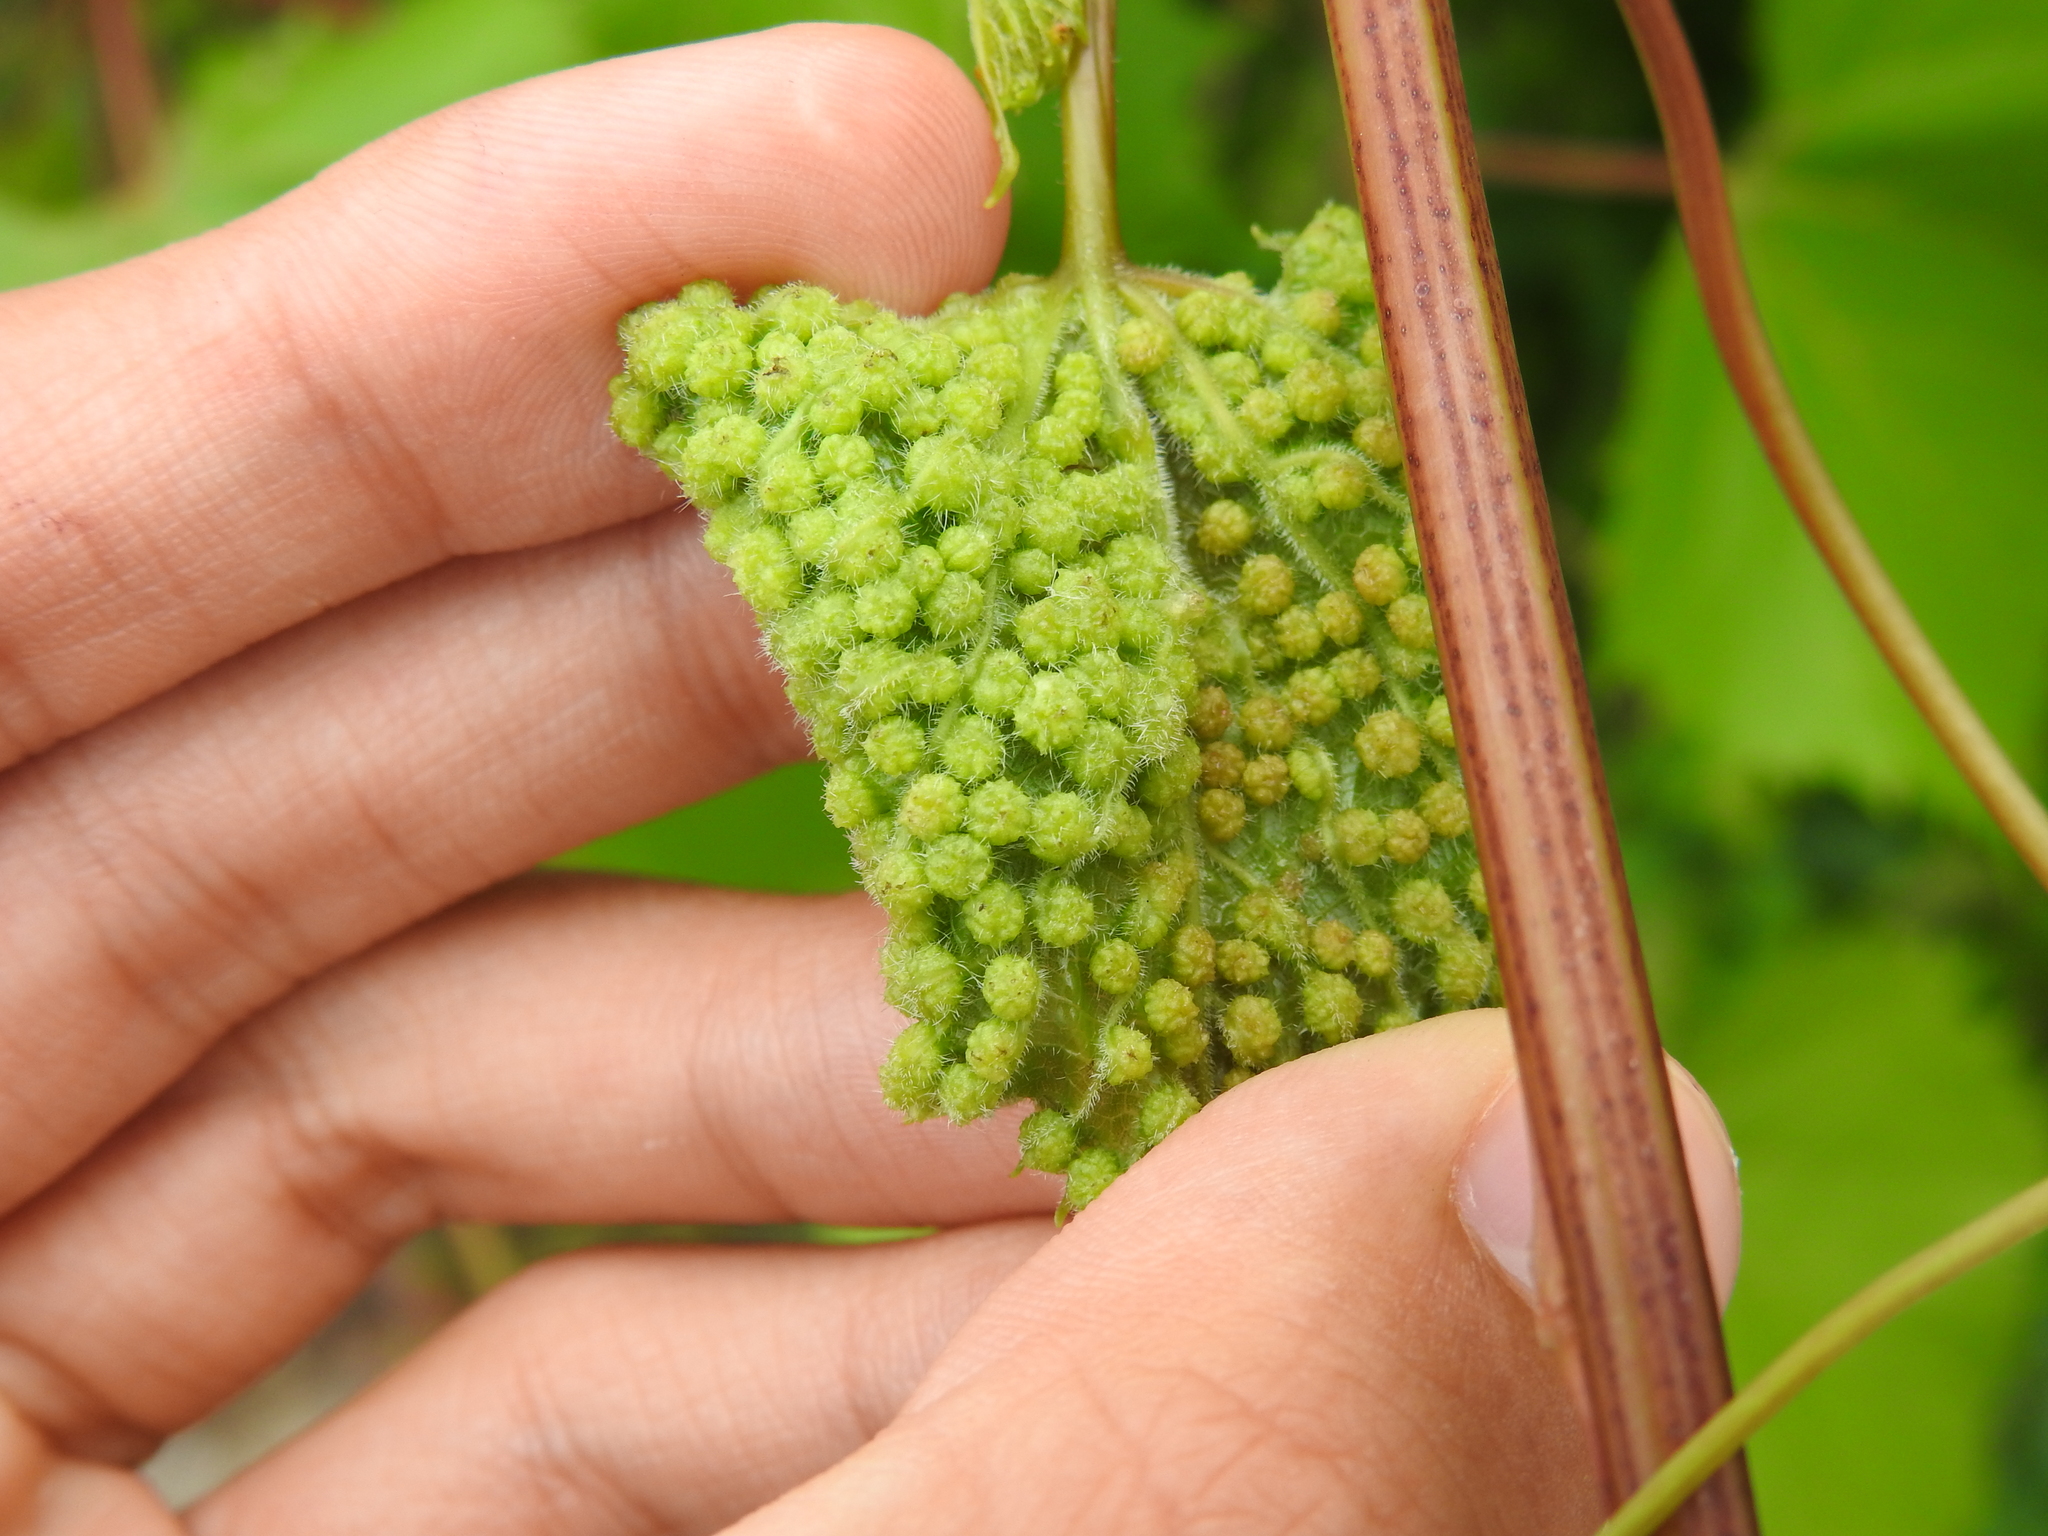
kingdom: Animalia
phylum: Arthropoda
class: Insecta
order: Hemiptera
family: Phylloxeridae
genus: Daktulosphaira
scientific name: Daktulosphaira vitifoliae
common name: Grape phylloxera
